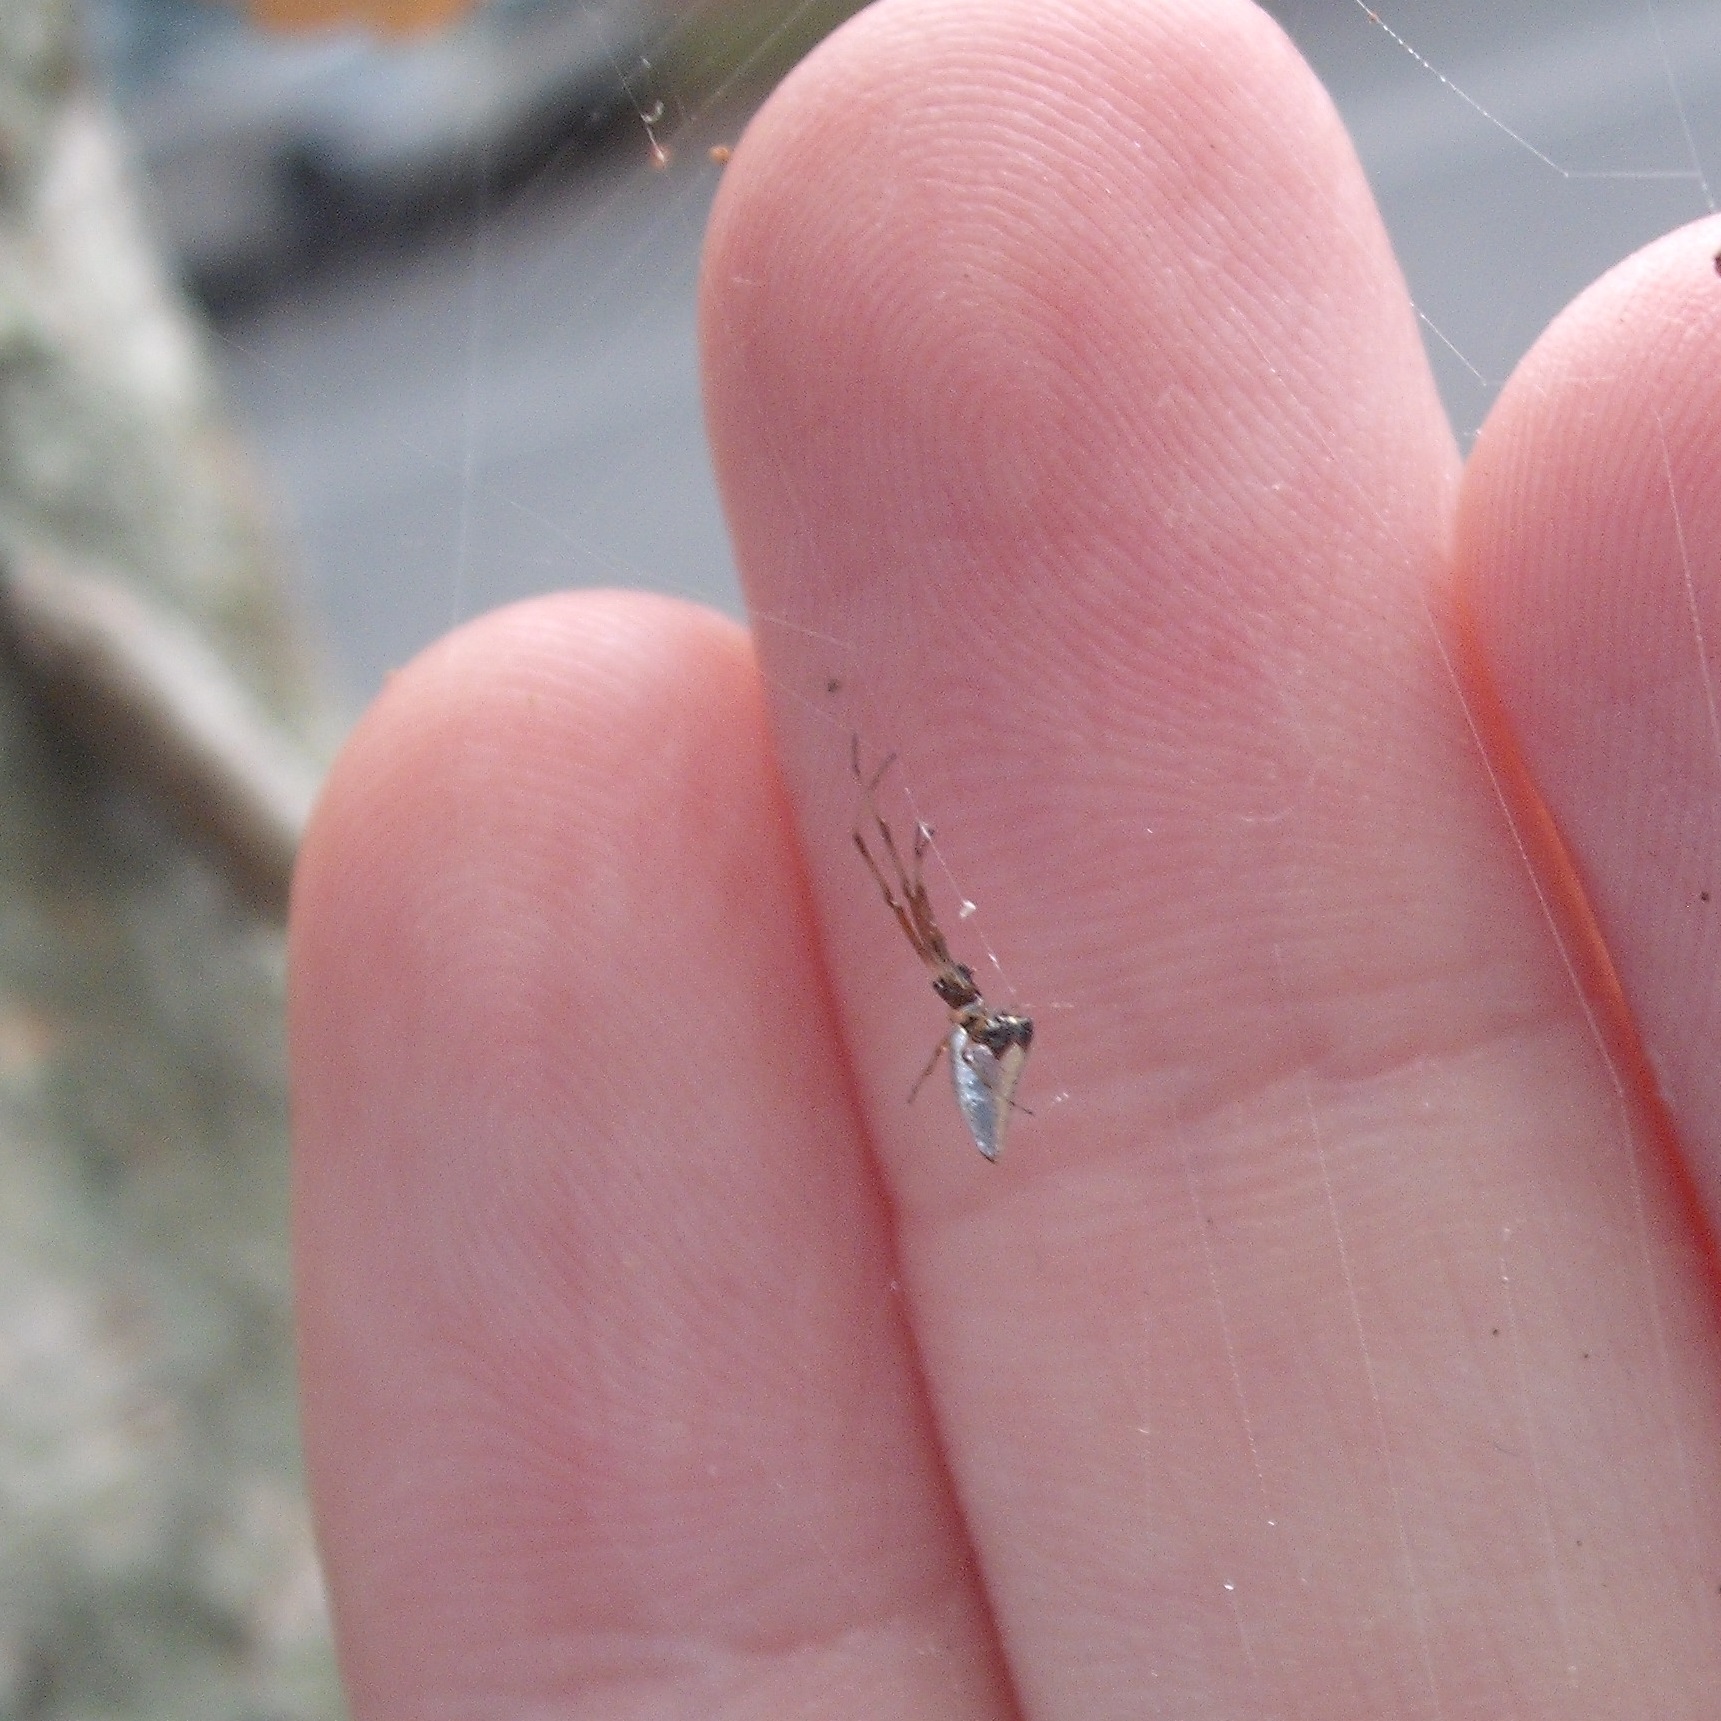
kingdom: Animalia
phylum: Arthropoda
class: Arachnida
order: Araneae
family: Theridiidae
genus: Argyrodes
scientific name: Argyrodes antipodianus
